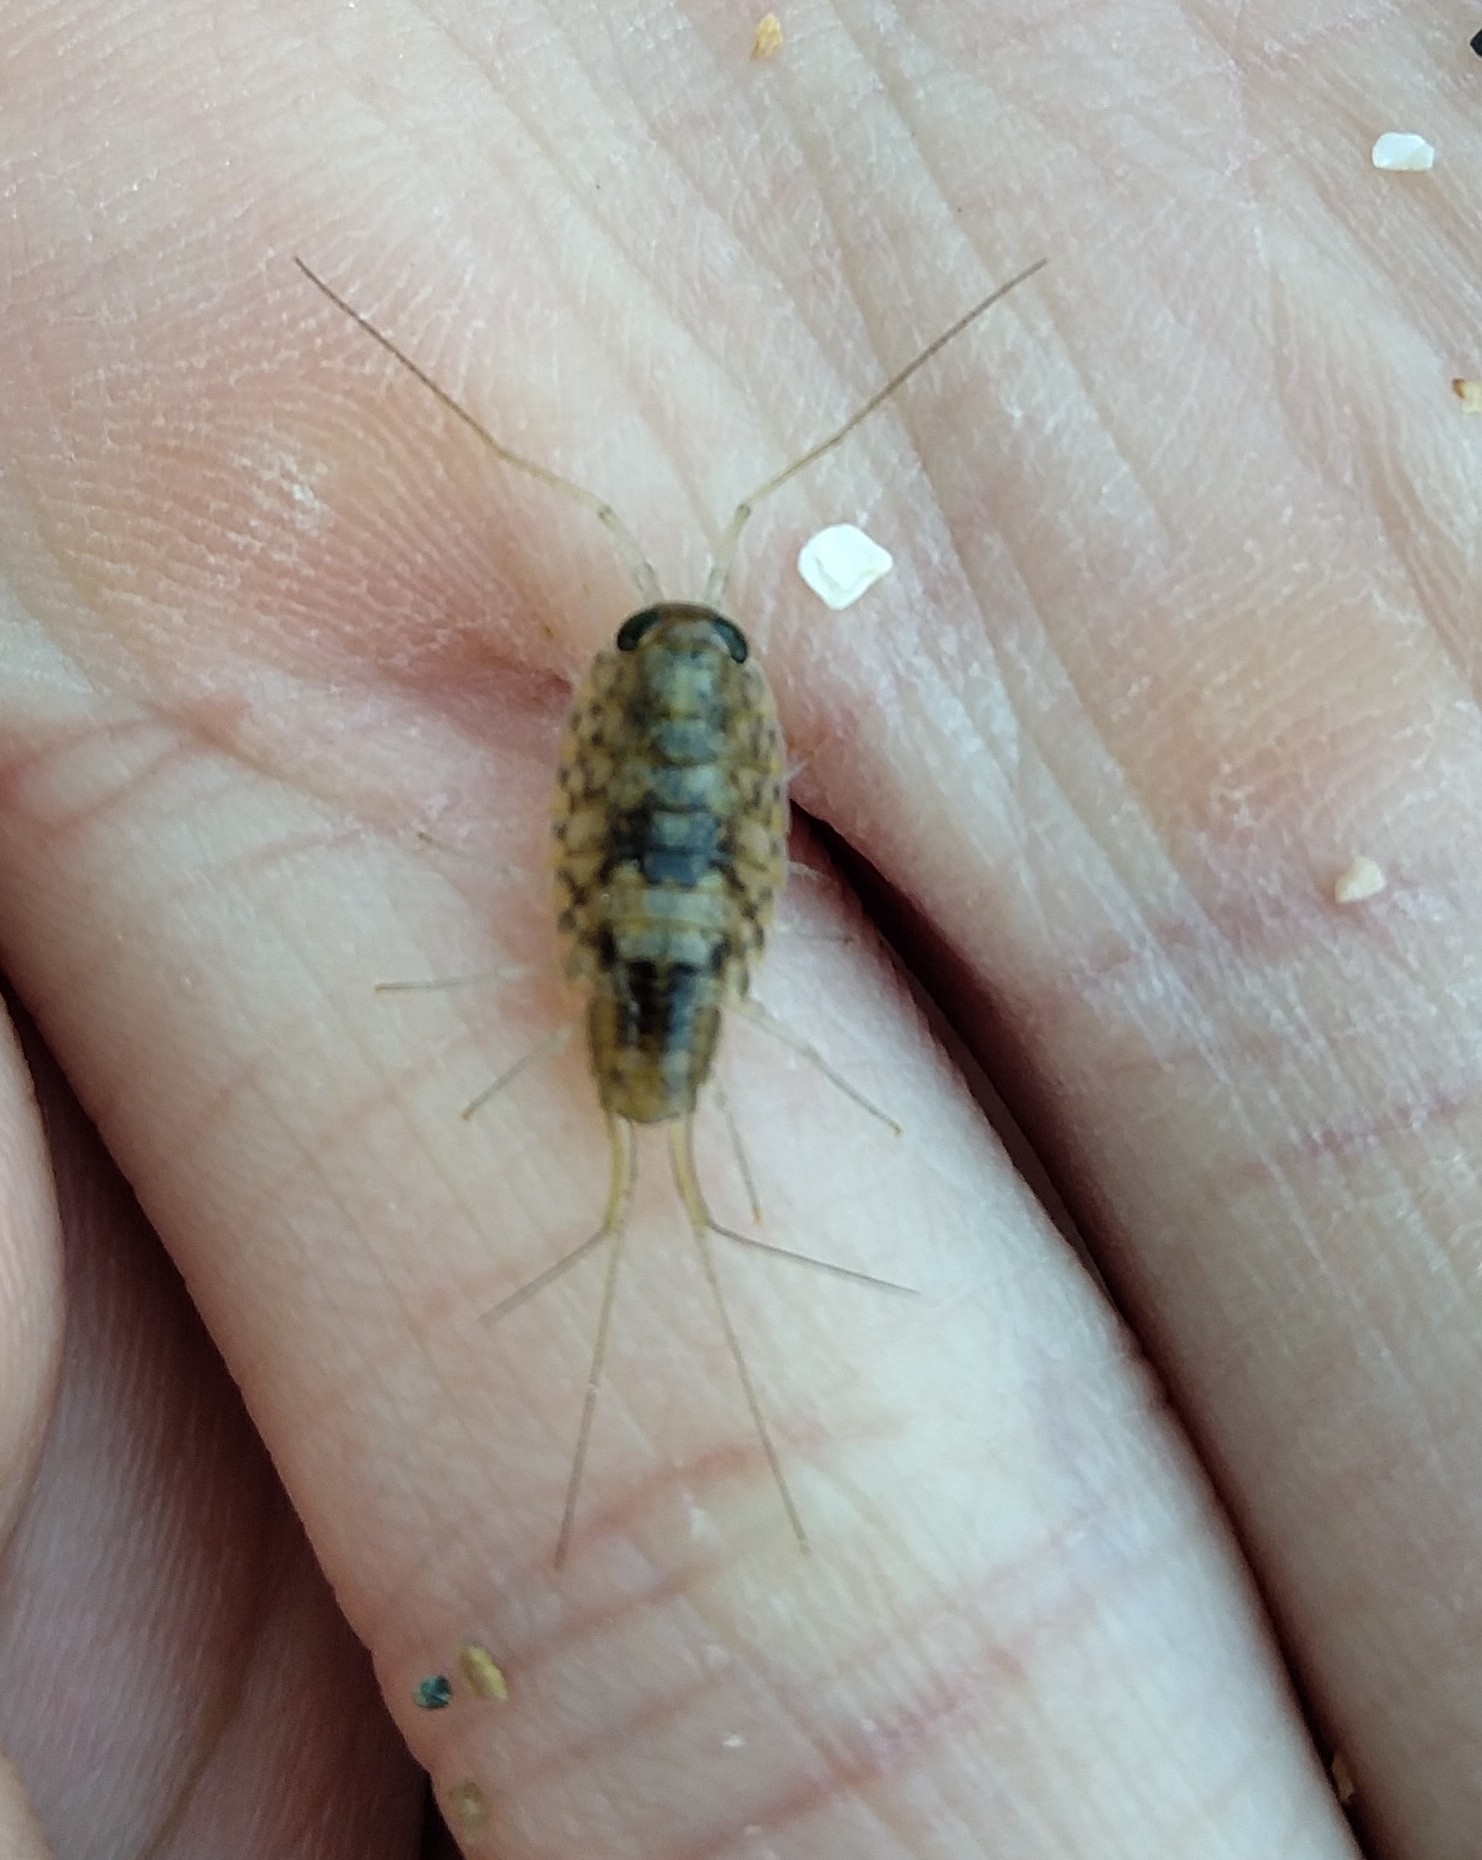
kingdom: Animalia
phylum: Arthropoda
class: Malacostraca
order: Isopoda
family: Ligiidae
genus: Ligia
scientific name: Ligia italica
